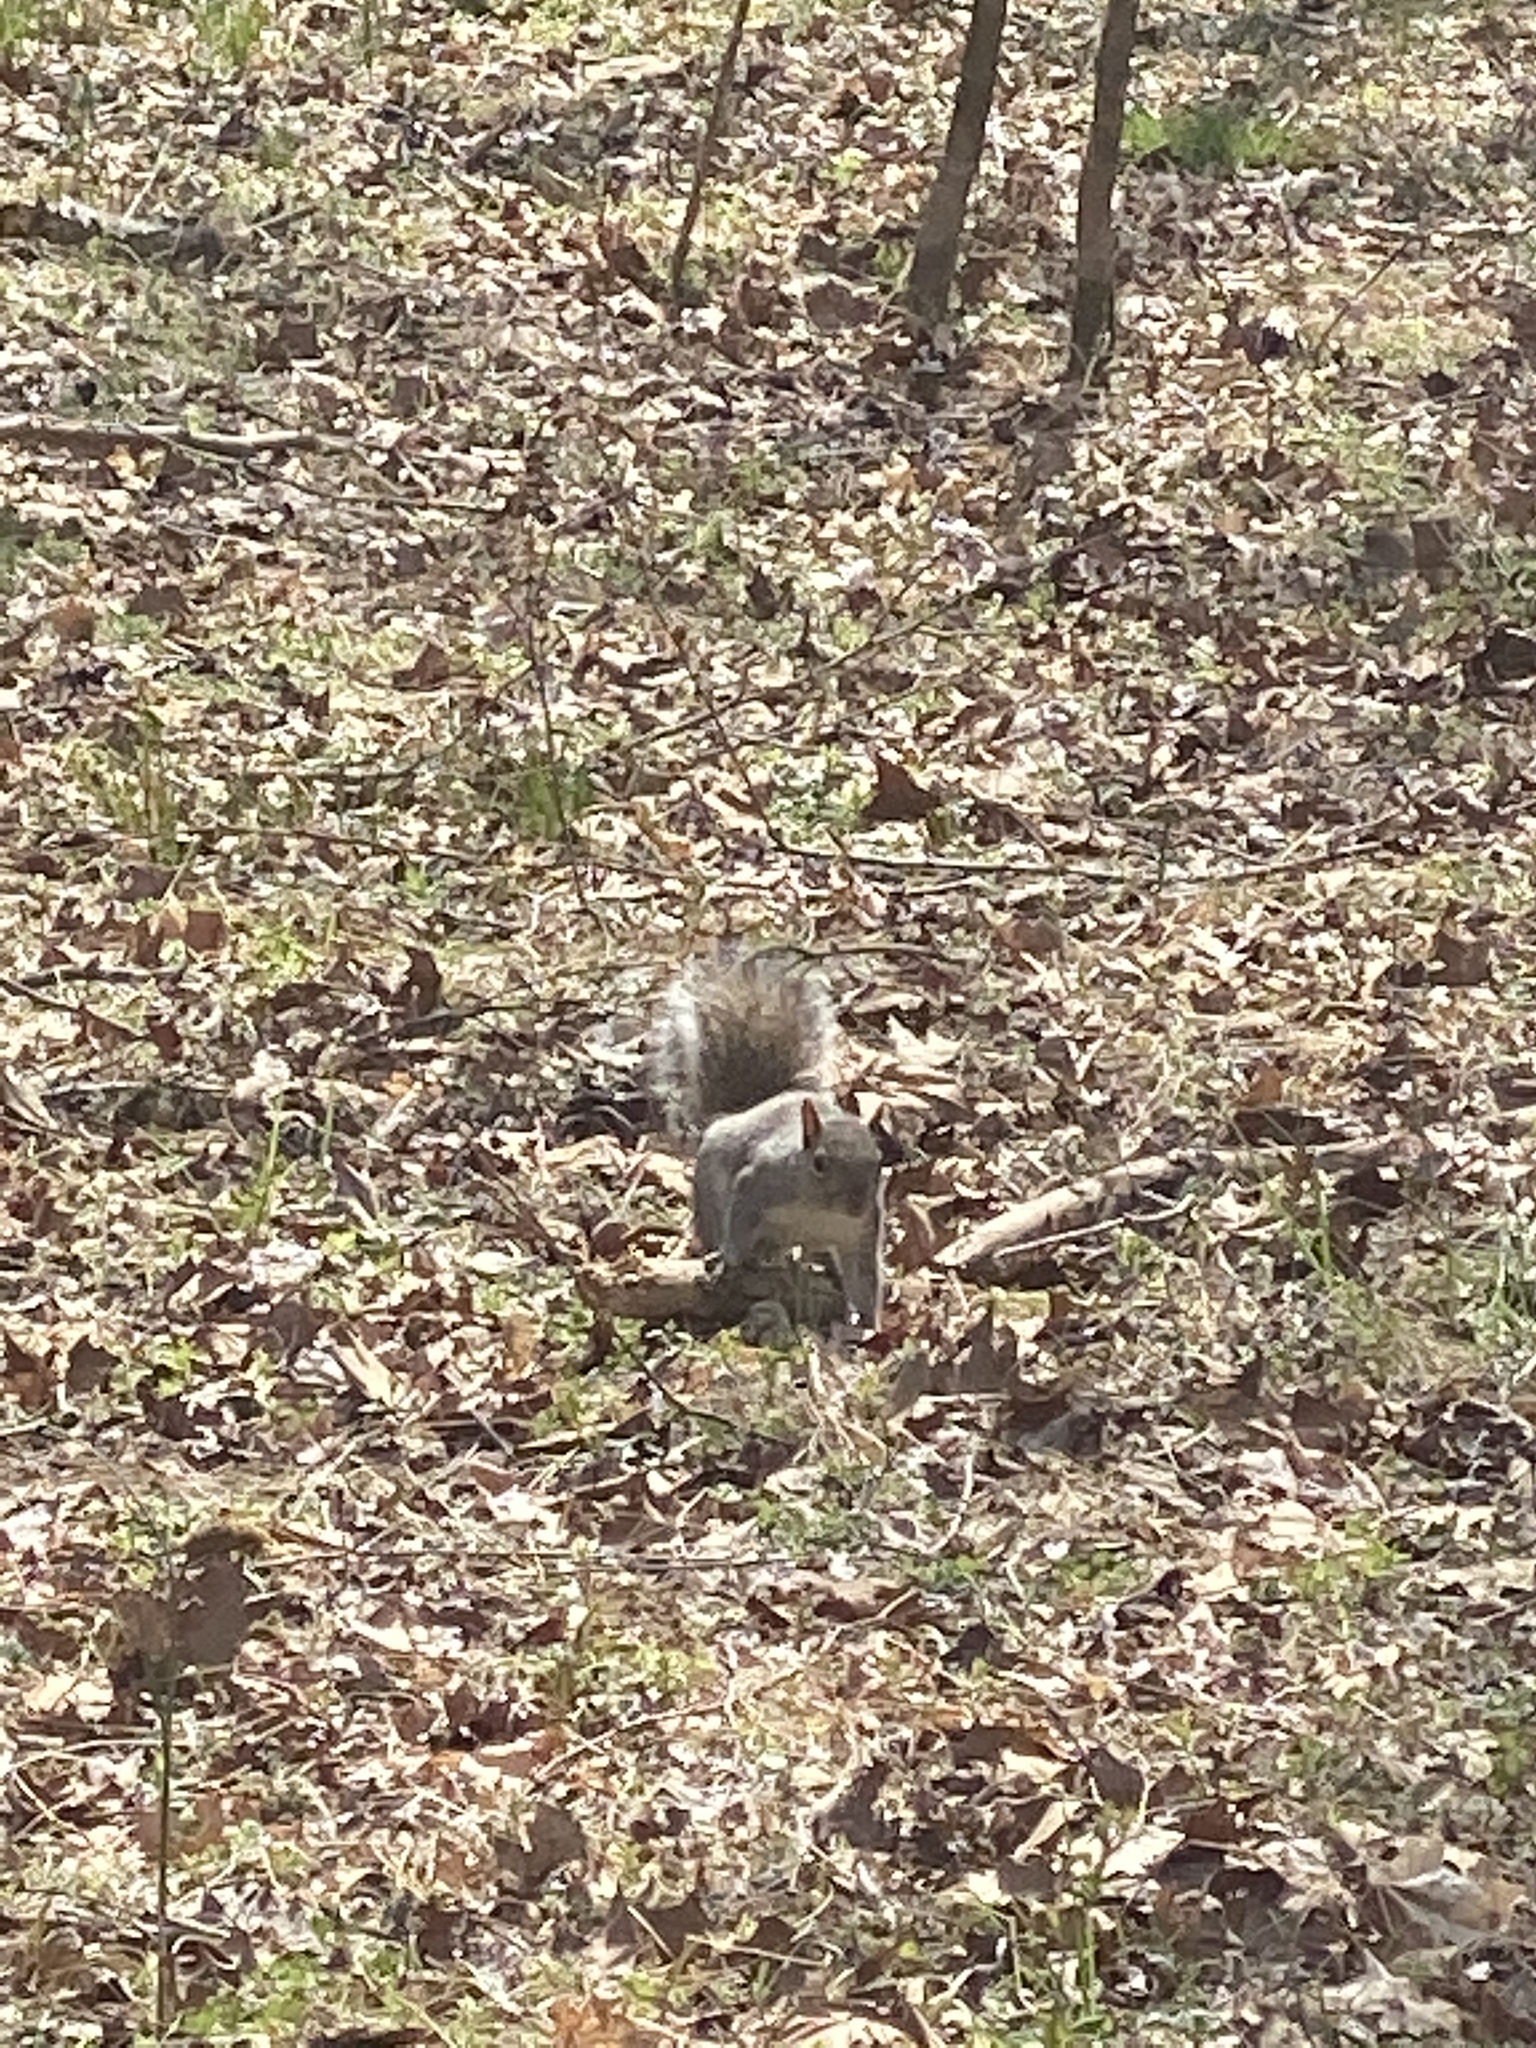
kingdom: Animalia
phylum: Chordata
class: Mammalia
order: Rodentia
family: Sciuridae
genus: Sciurus
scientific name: Sciurus carolinensis
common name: Eastern gray squirrel
